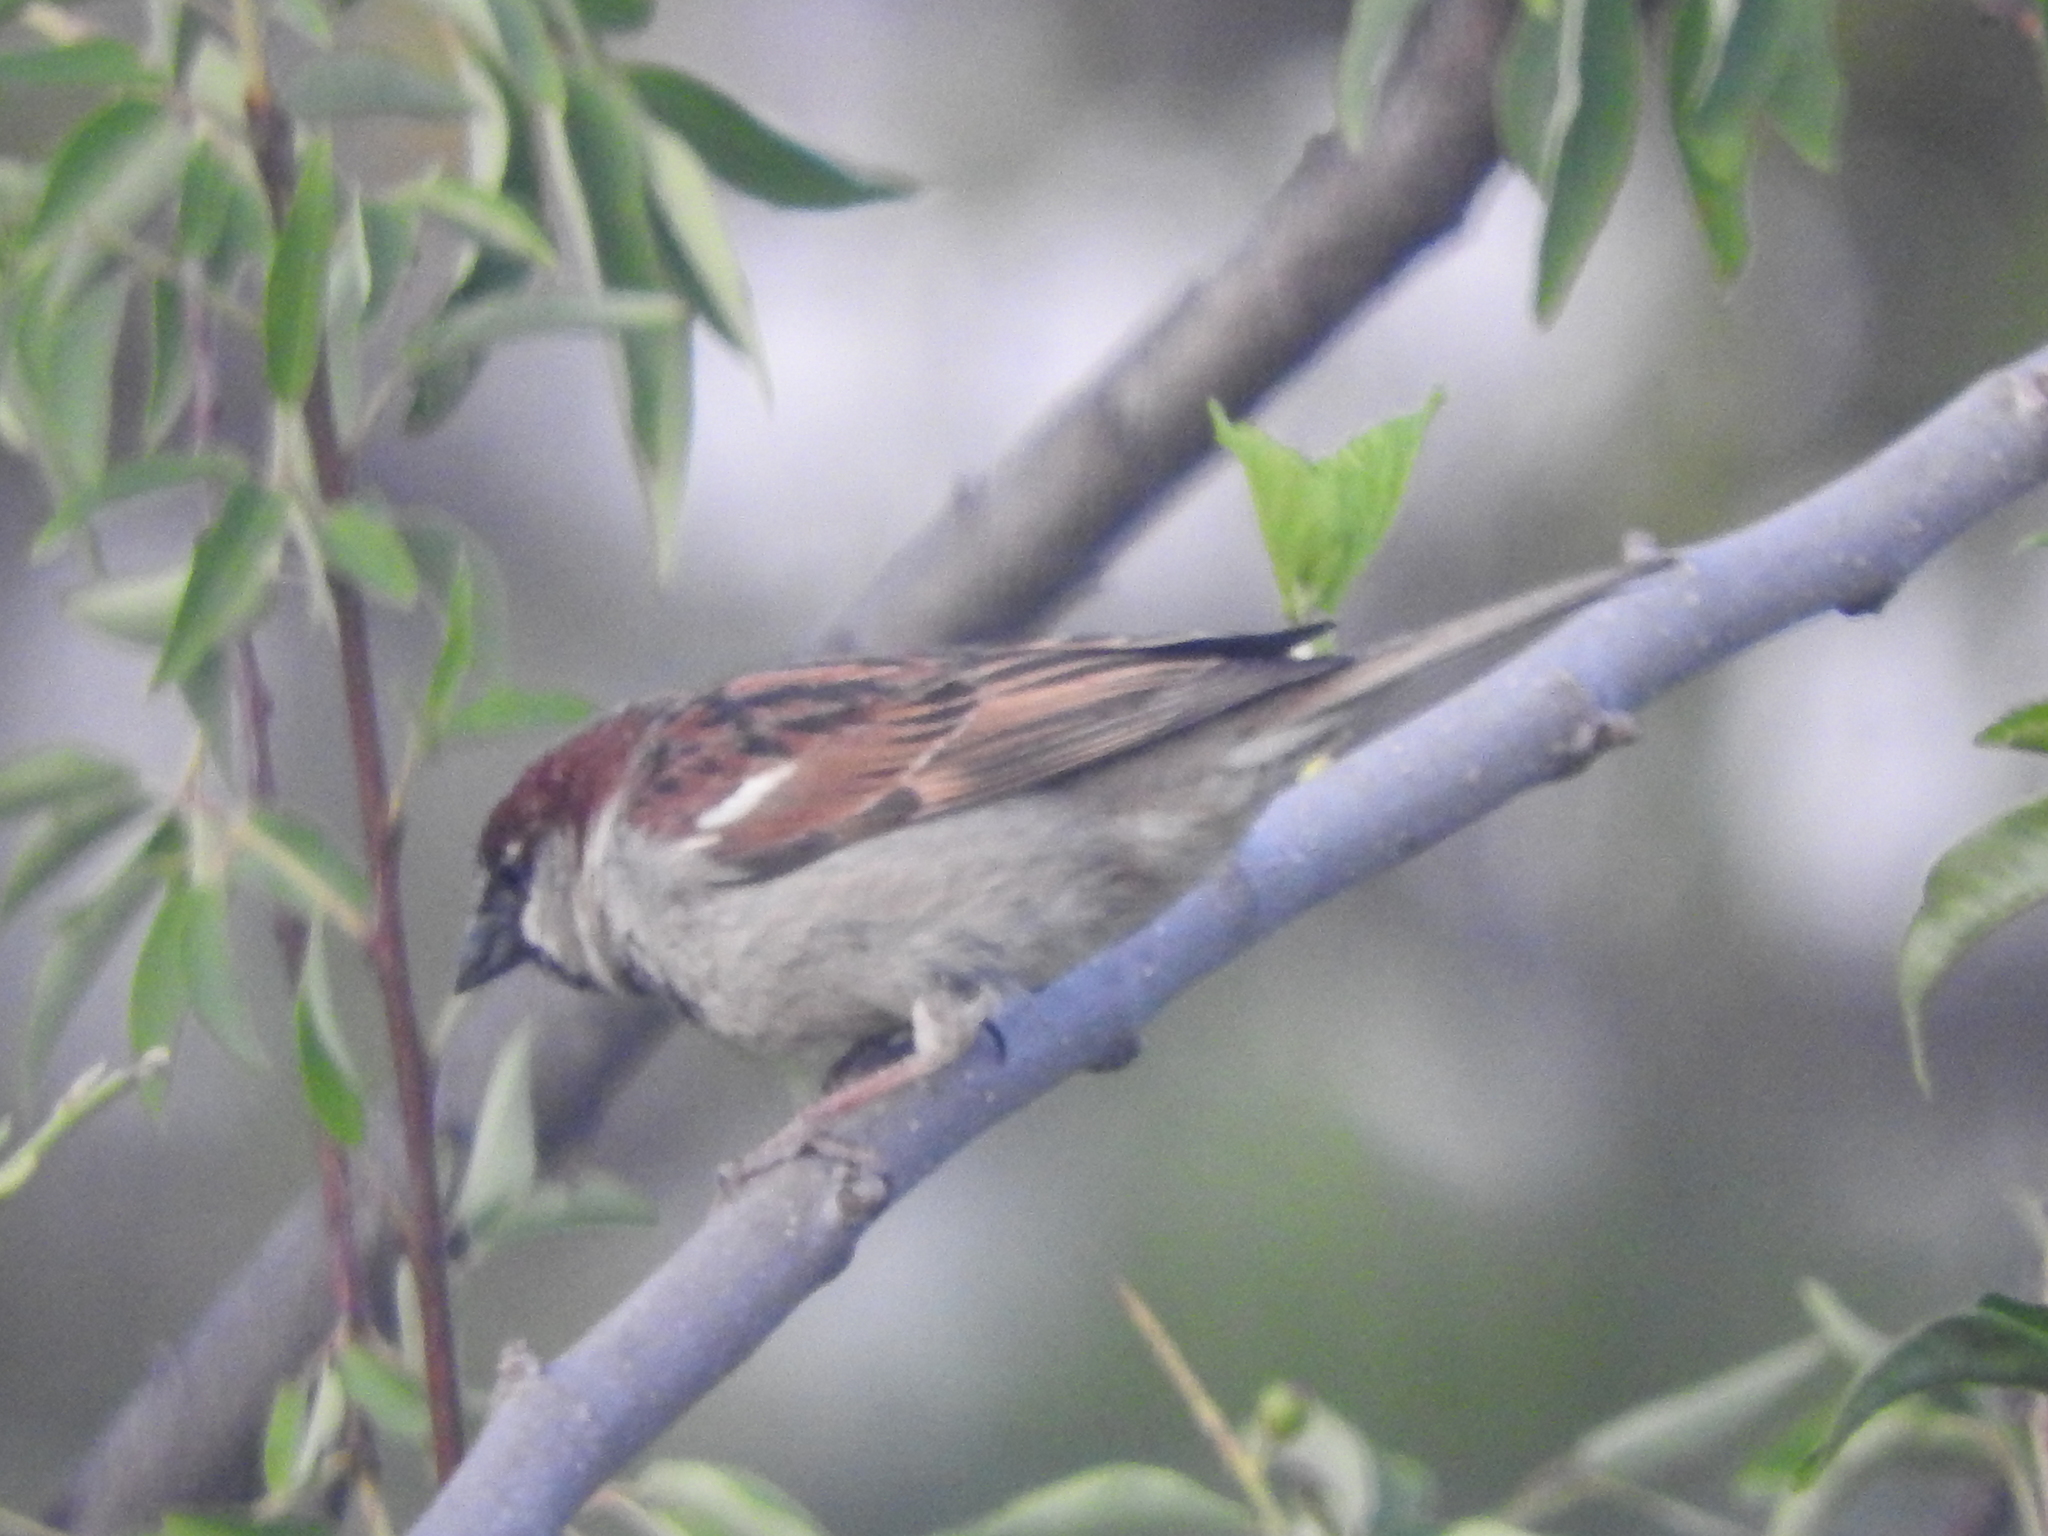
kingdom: Animalia
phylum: Chordata
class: Aves
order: Passeriformes
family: Passeridae
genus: Passer
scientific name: Passer domesticus
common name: House sparrow
